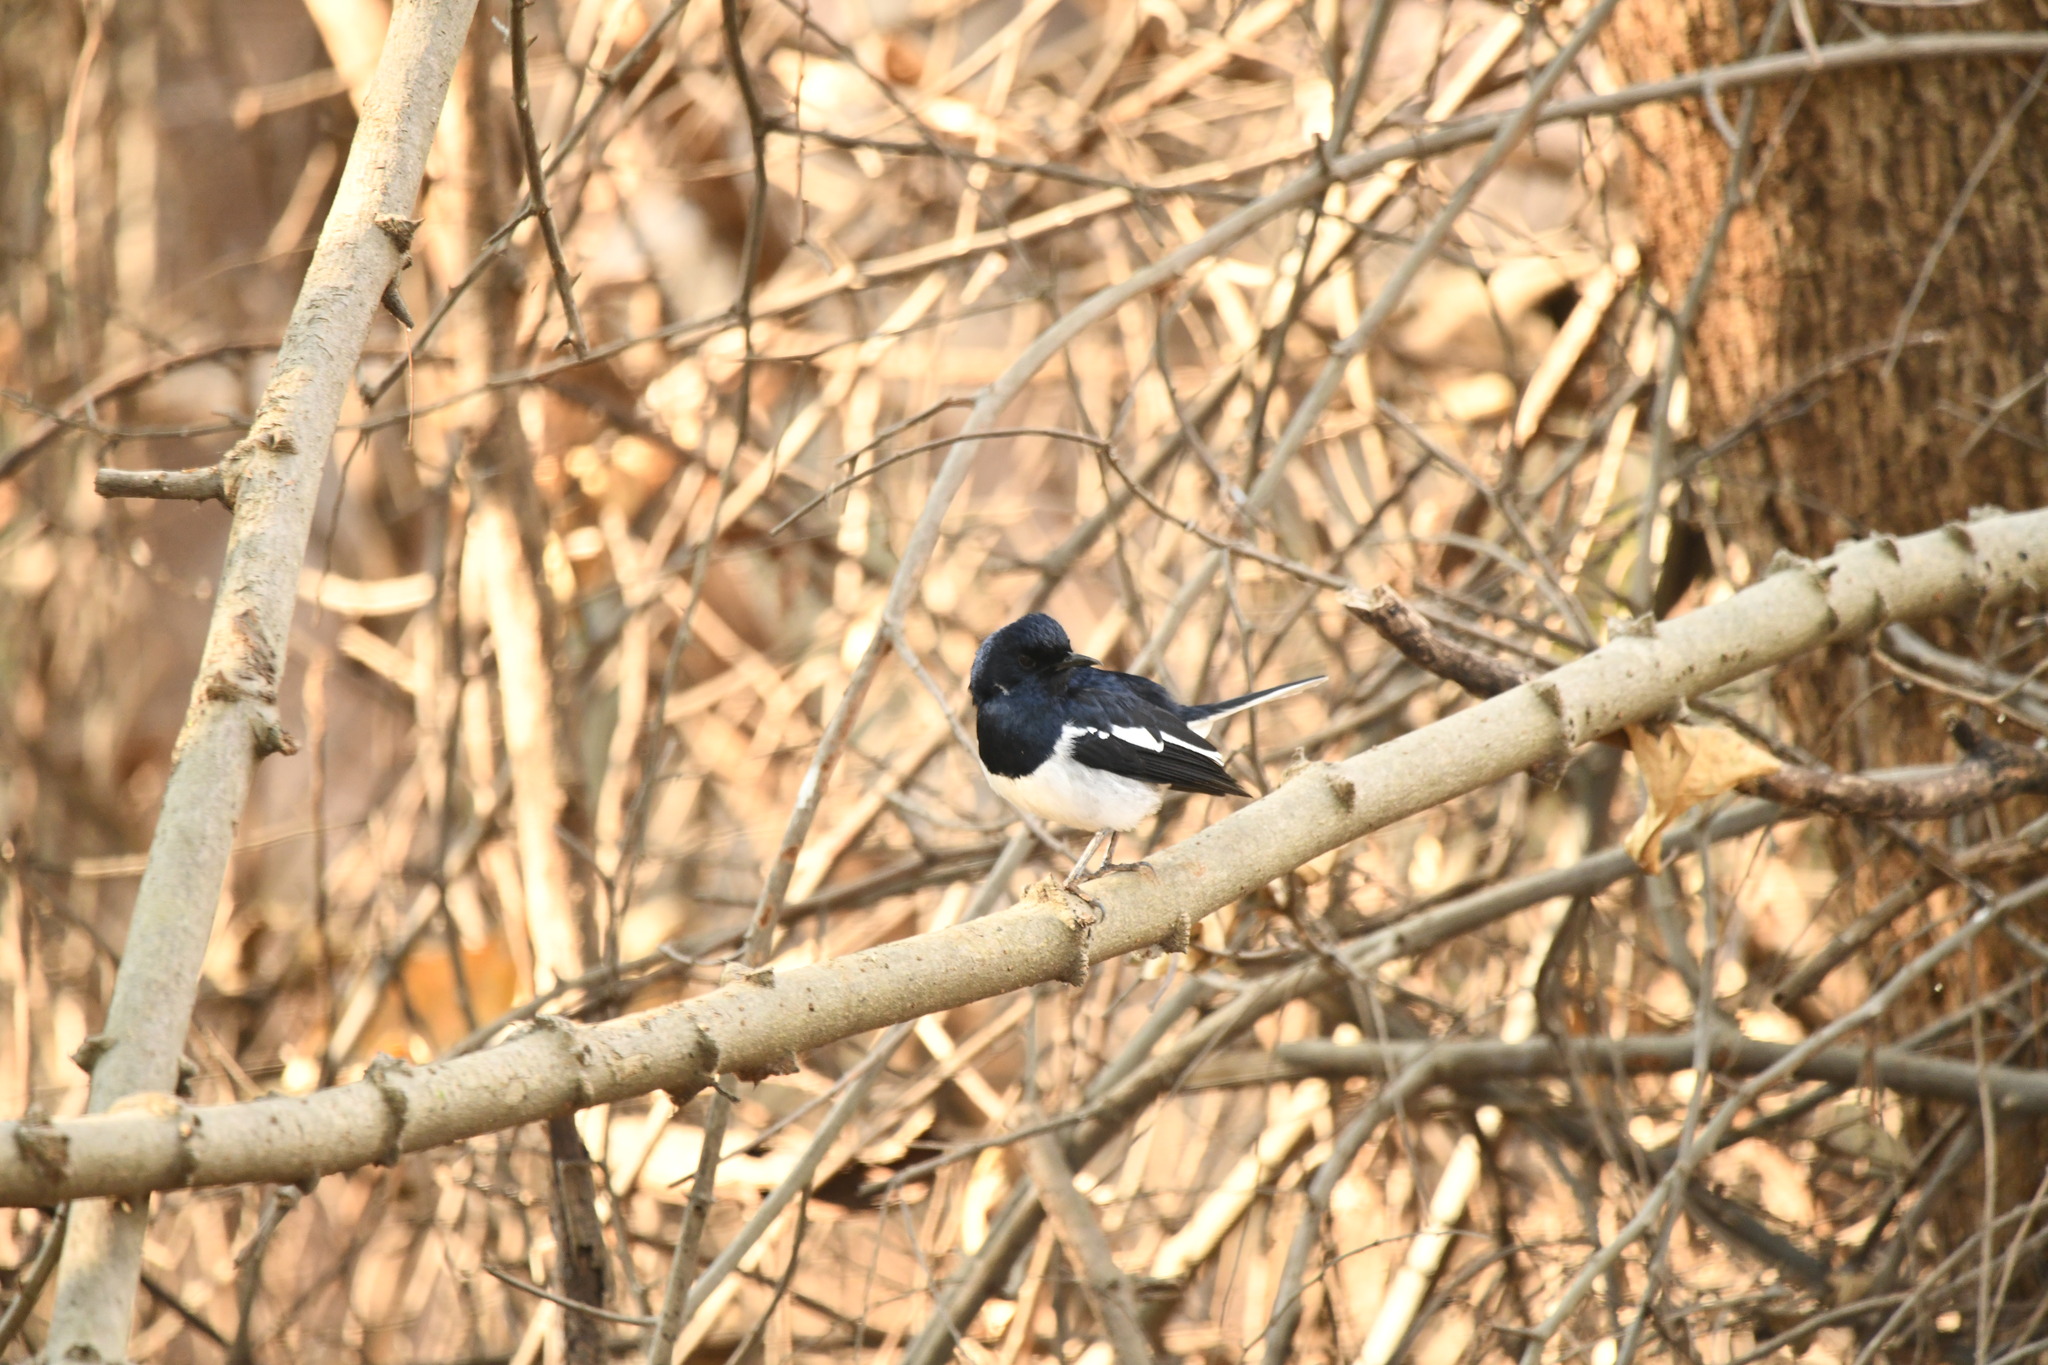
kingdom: Animalia
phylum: Chordata
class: Aves
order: Passeriformes
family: Muscicapidae
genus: Copsychus
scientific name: Copsychus saularis
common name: Oriental magpie-robin
